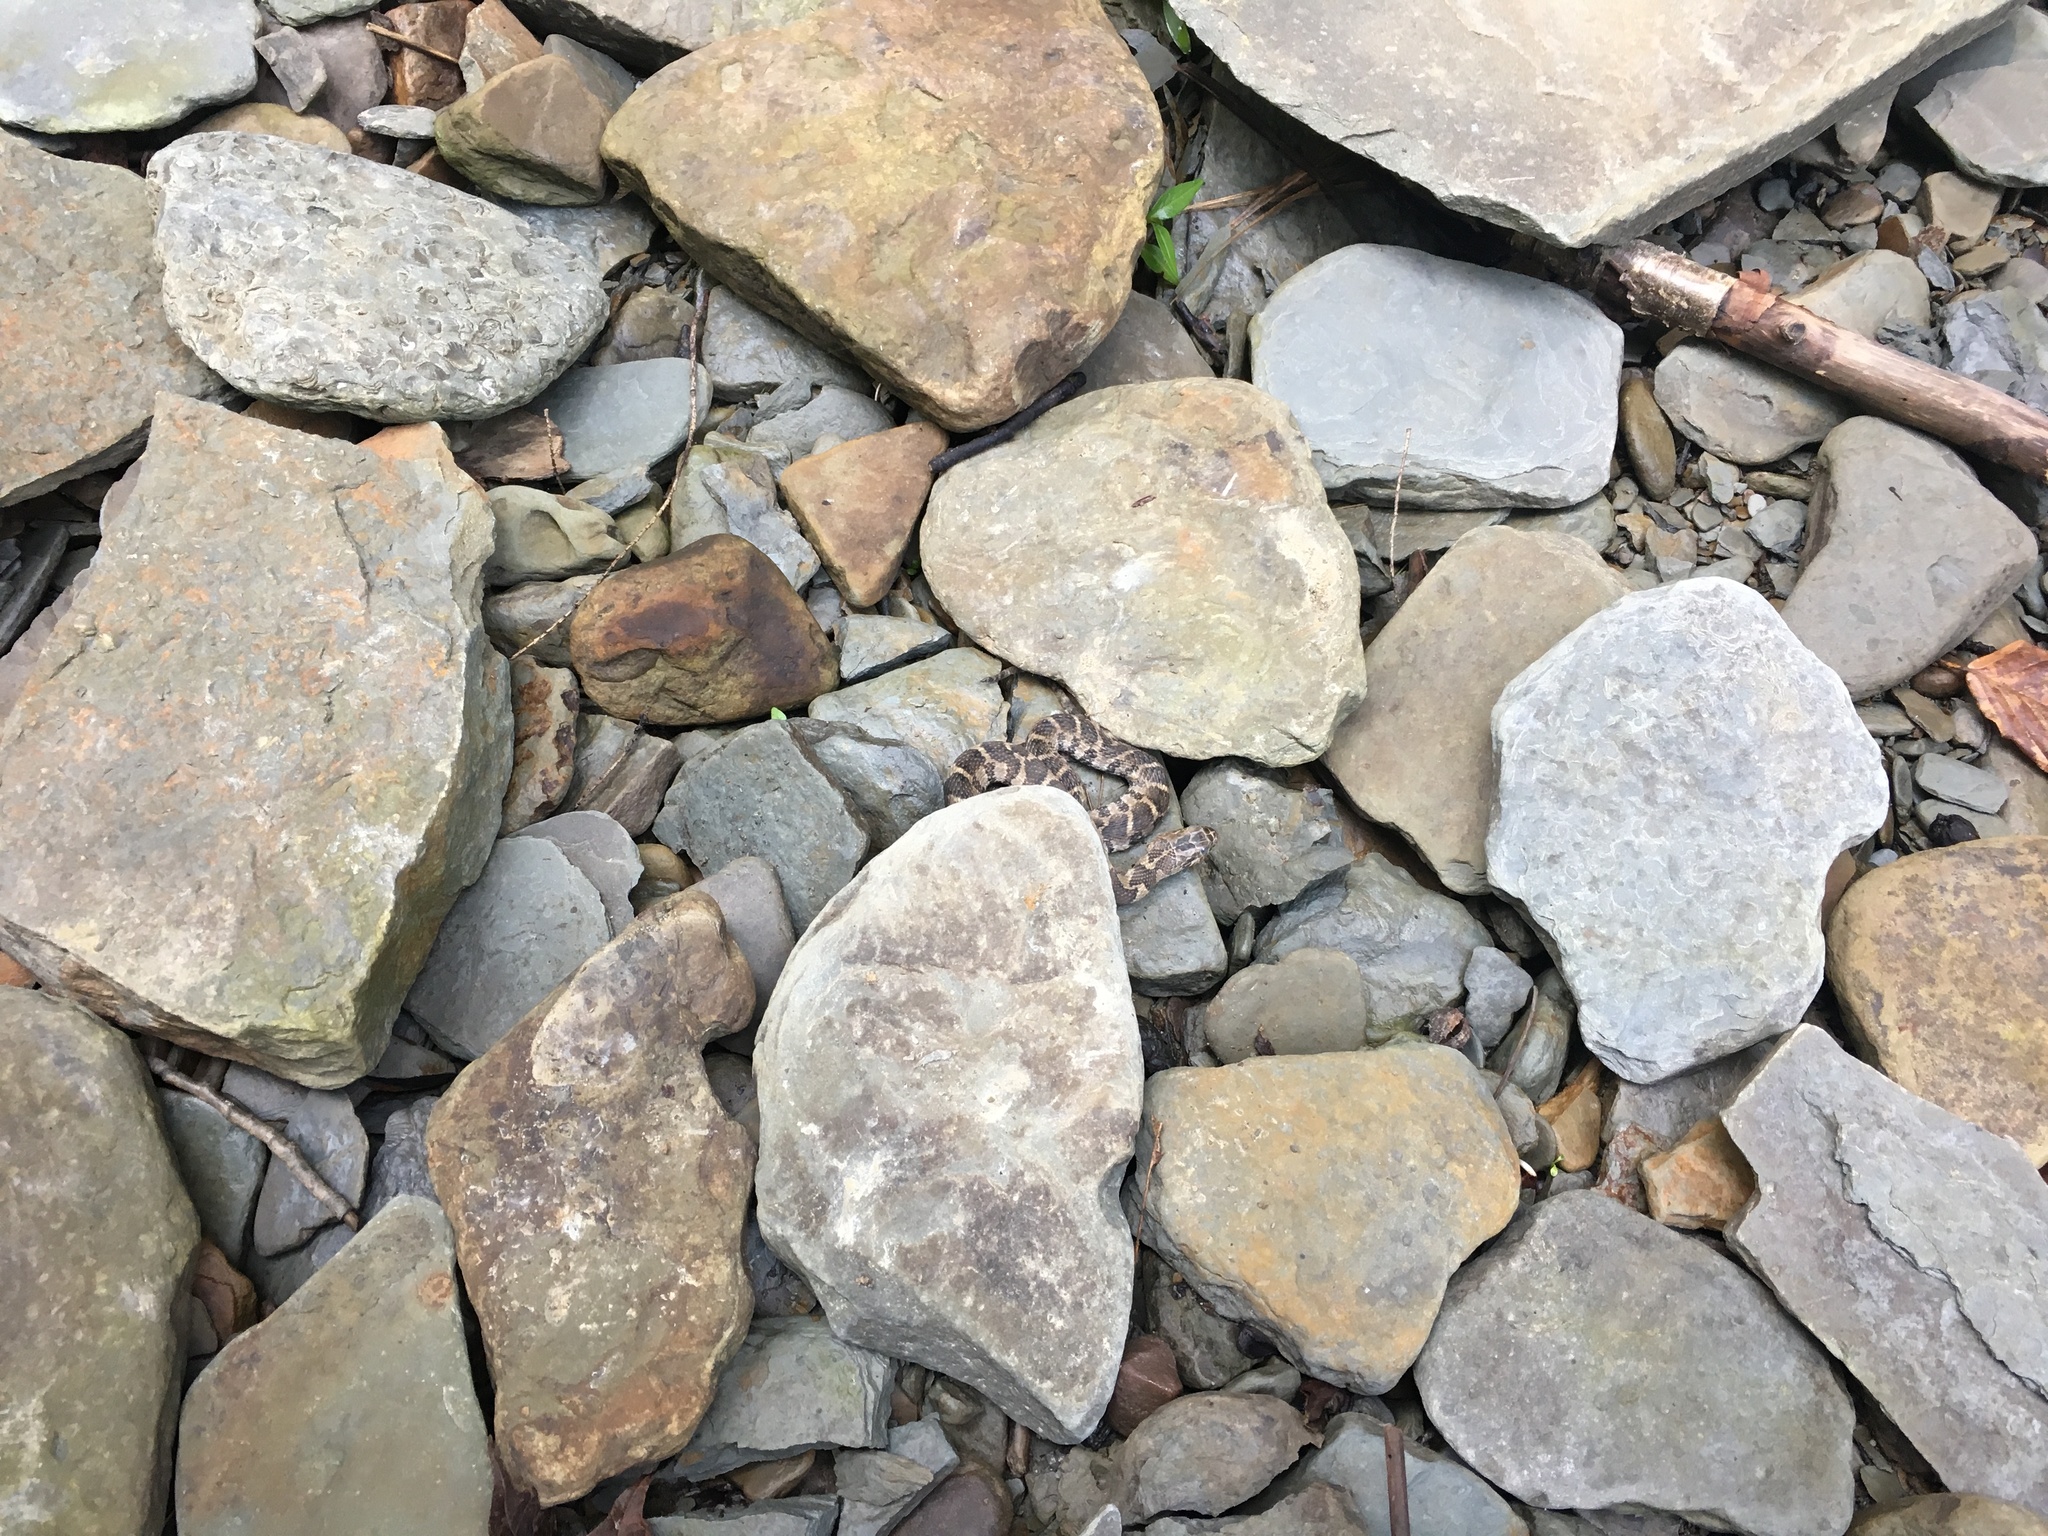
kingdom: Animalia
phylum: Chordata
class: Squamata
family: Colubridae
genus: Nerodia
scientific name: Nerodia sipedon
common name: Northern water snake
